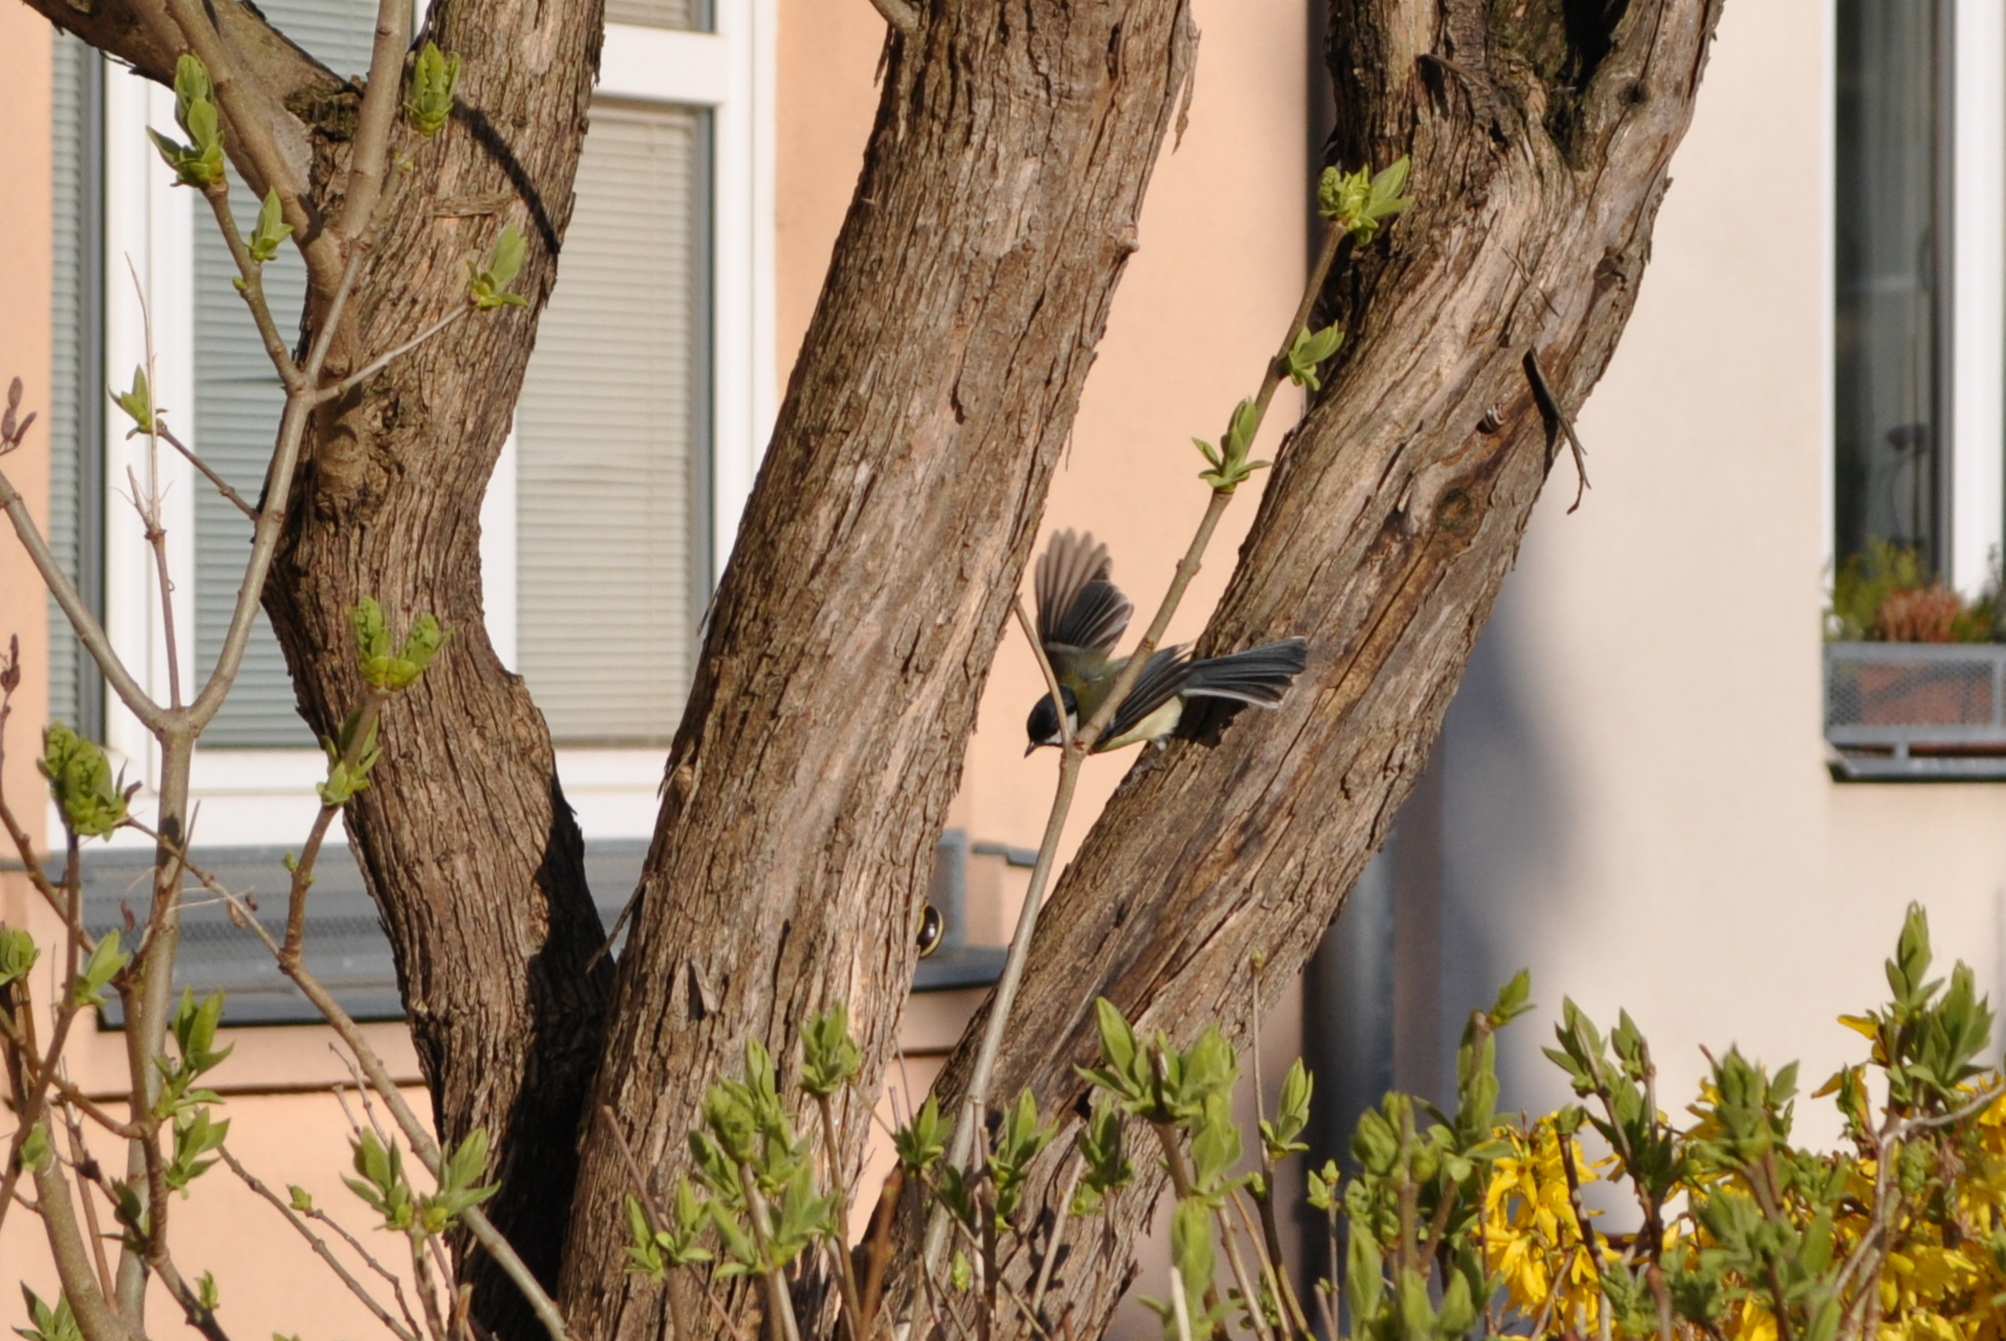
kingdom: Animalia
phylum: Chordata
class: Aves
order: Passeriformes
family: Paridae
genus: Parus
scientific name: Parus major
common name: Great tit
